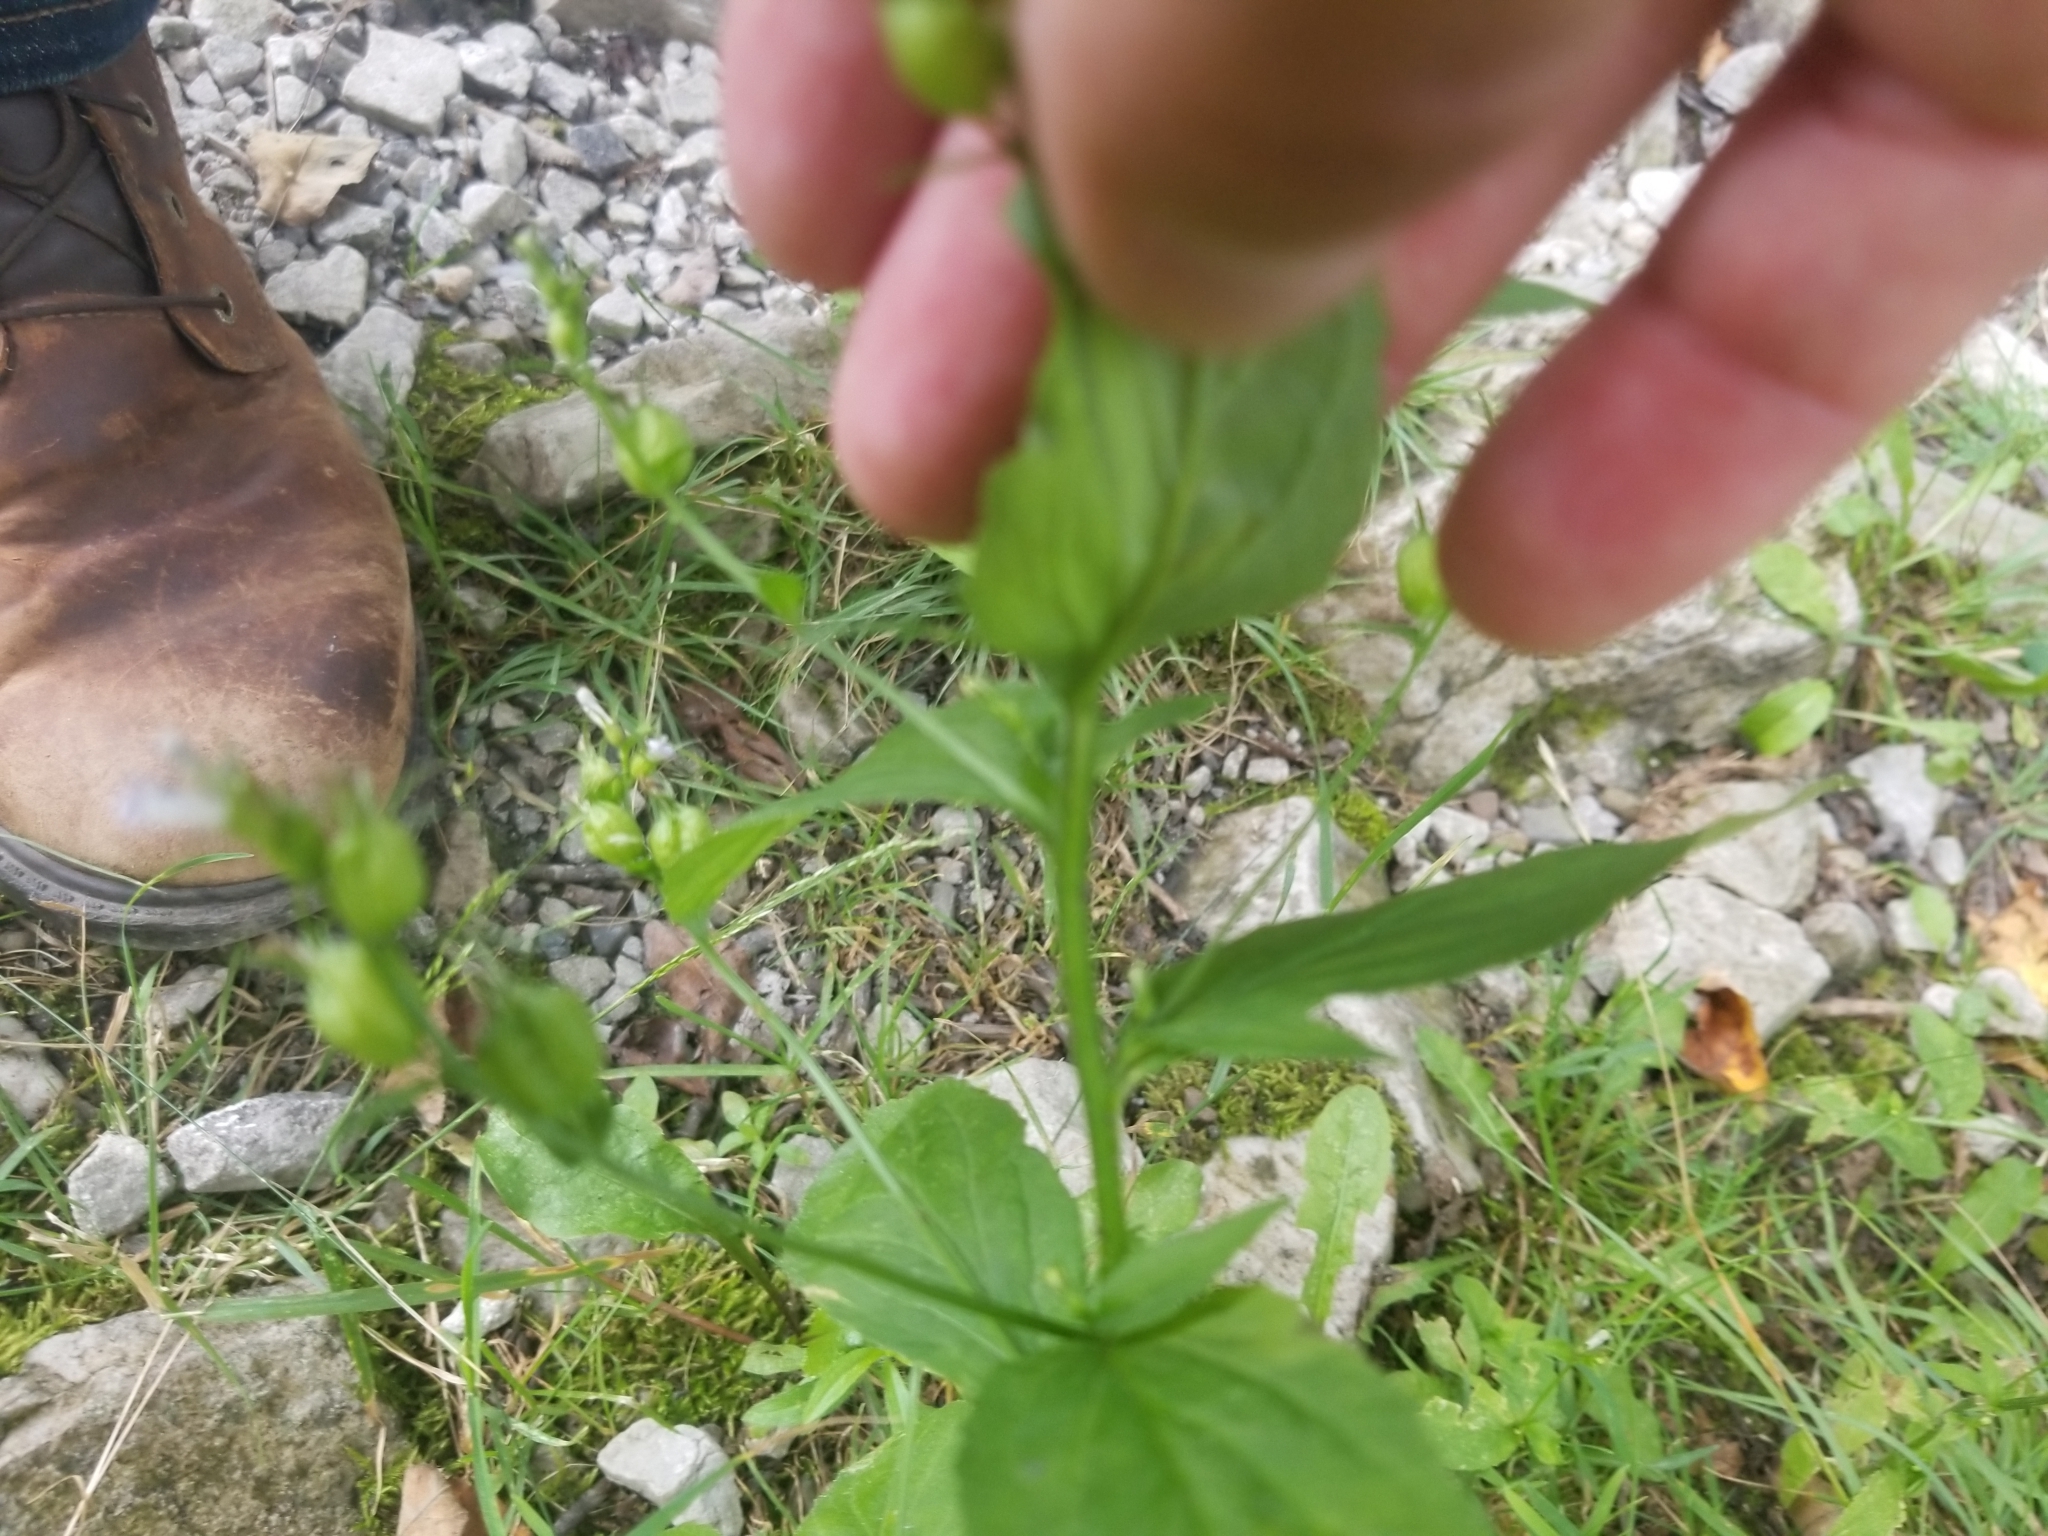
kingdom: Plantae
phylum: Tracheophyta
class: Magnoliopsida
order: Asterales
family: Campanulaceae
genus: Lobelia
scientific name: Lobelia inflata
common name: Indian tobacco
